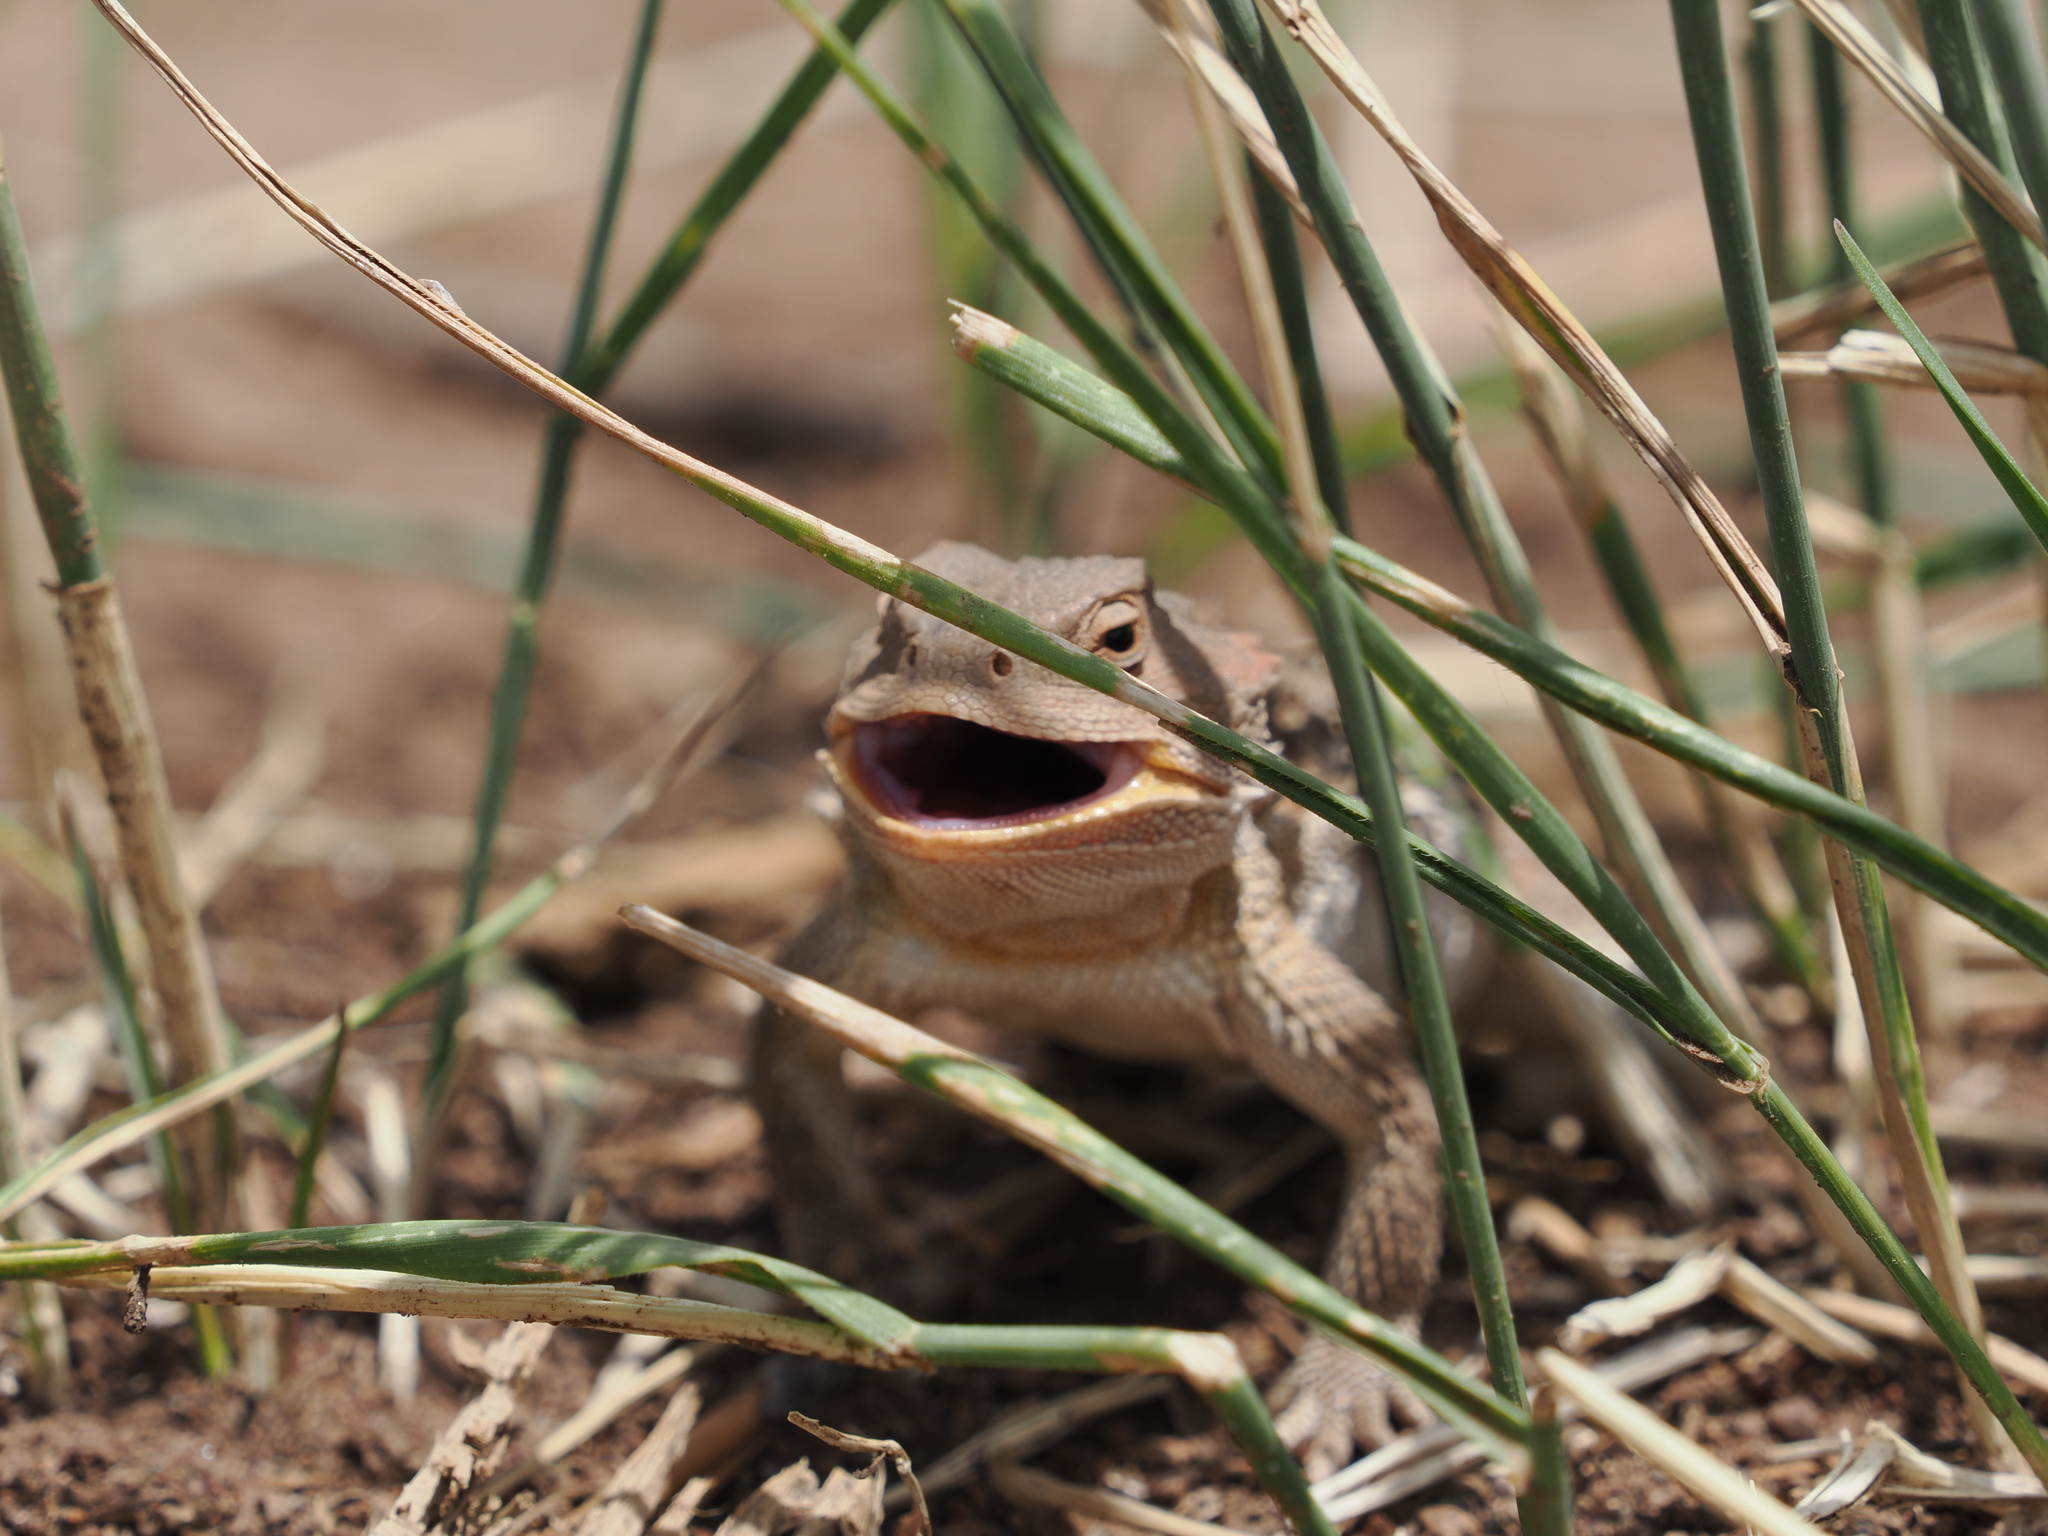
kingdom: Animalia
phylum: Chordata
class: Squamata
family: Phrynosomatidae
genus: Phrynosoma
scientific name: Phrynosoma hernandesi
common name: Greater short-horned lizard
